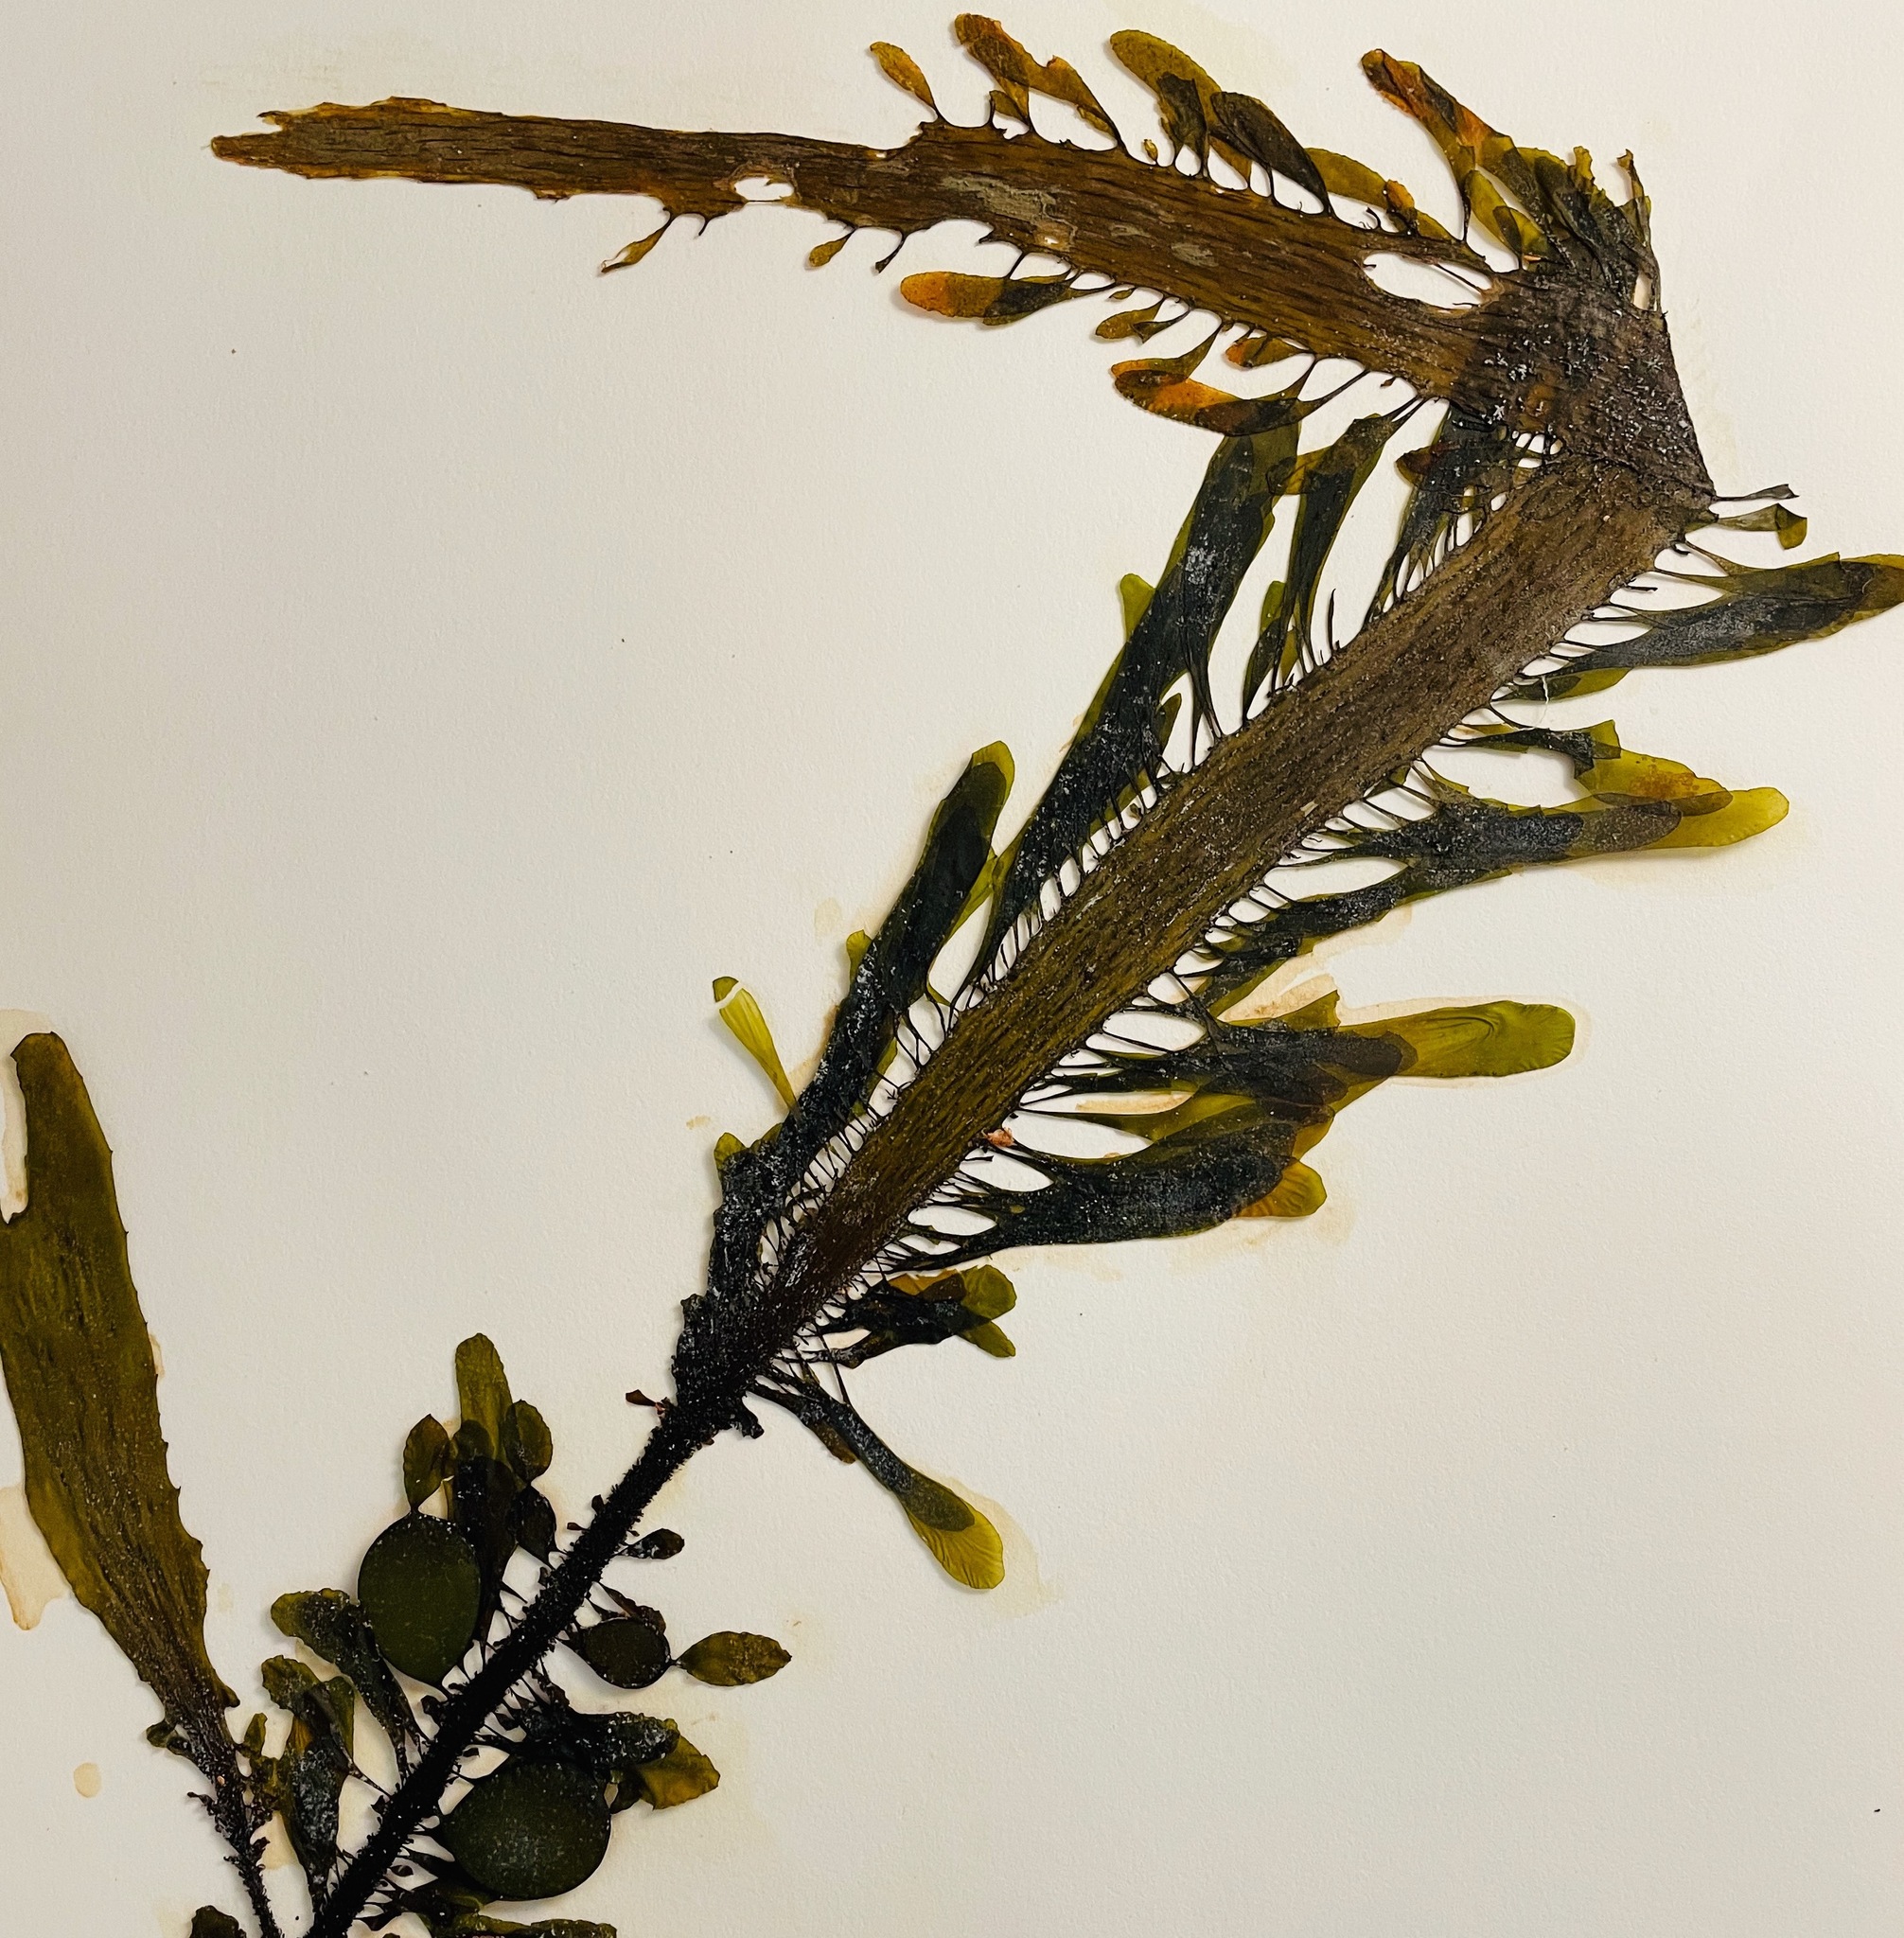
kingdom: Chromista
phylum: Ochrophyta
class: Phaeophyceae
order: Laminariales
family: Lessoniaceae
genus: Egregia
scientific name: Egregia menziesii
